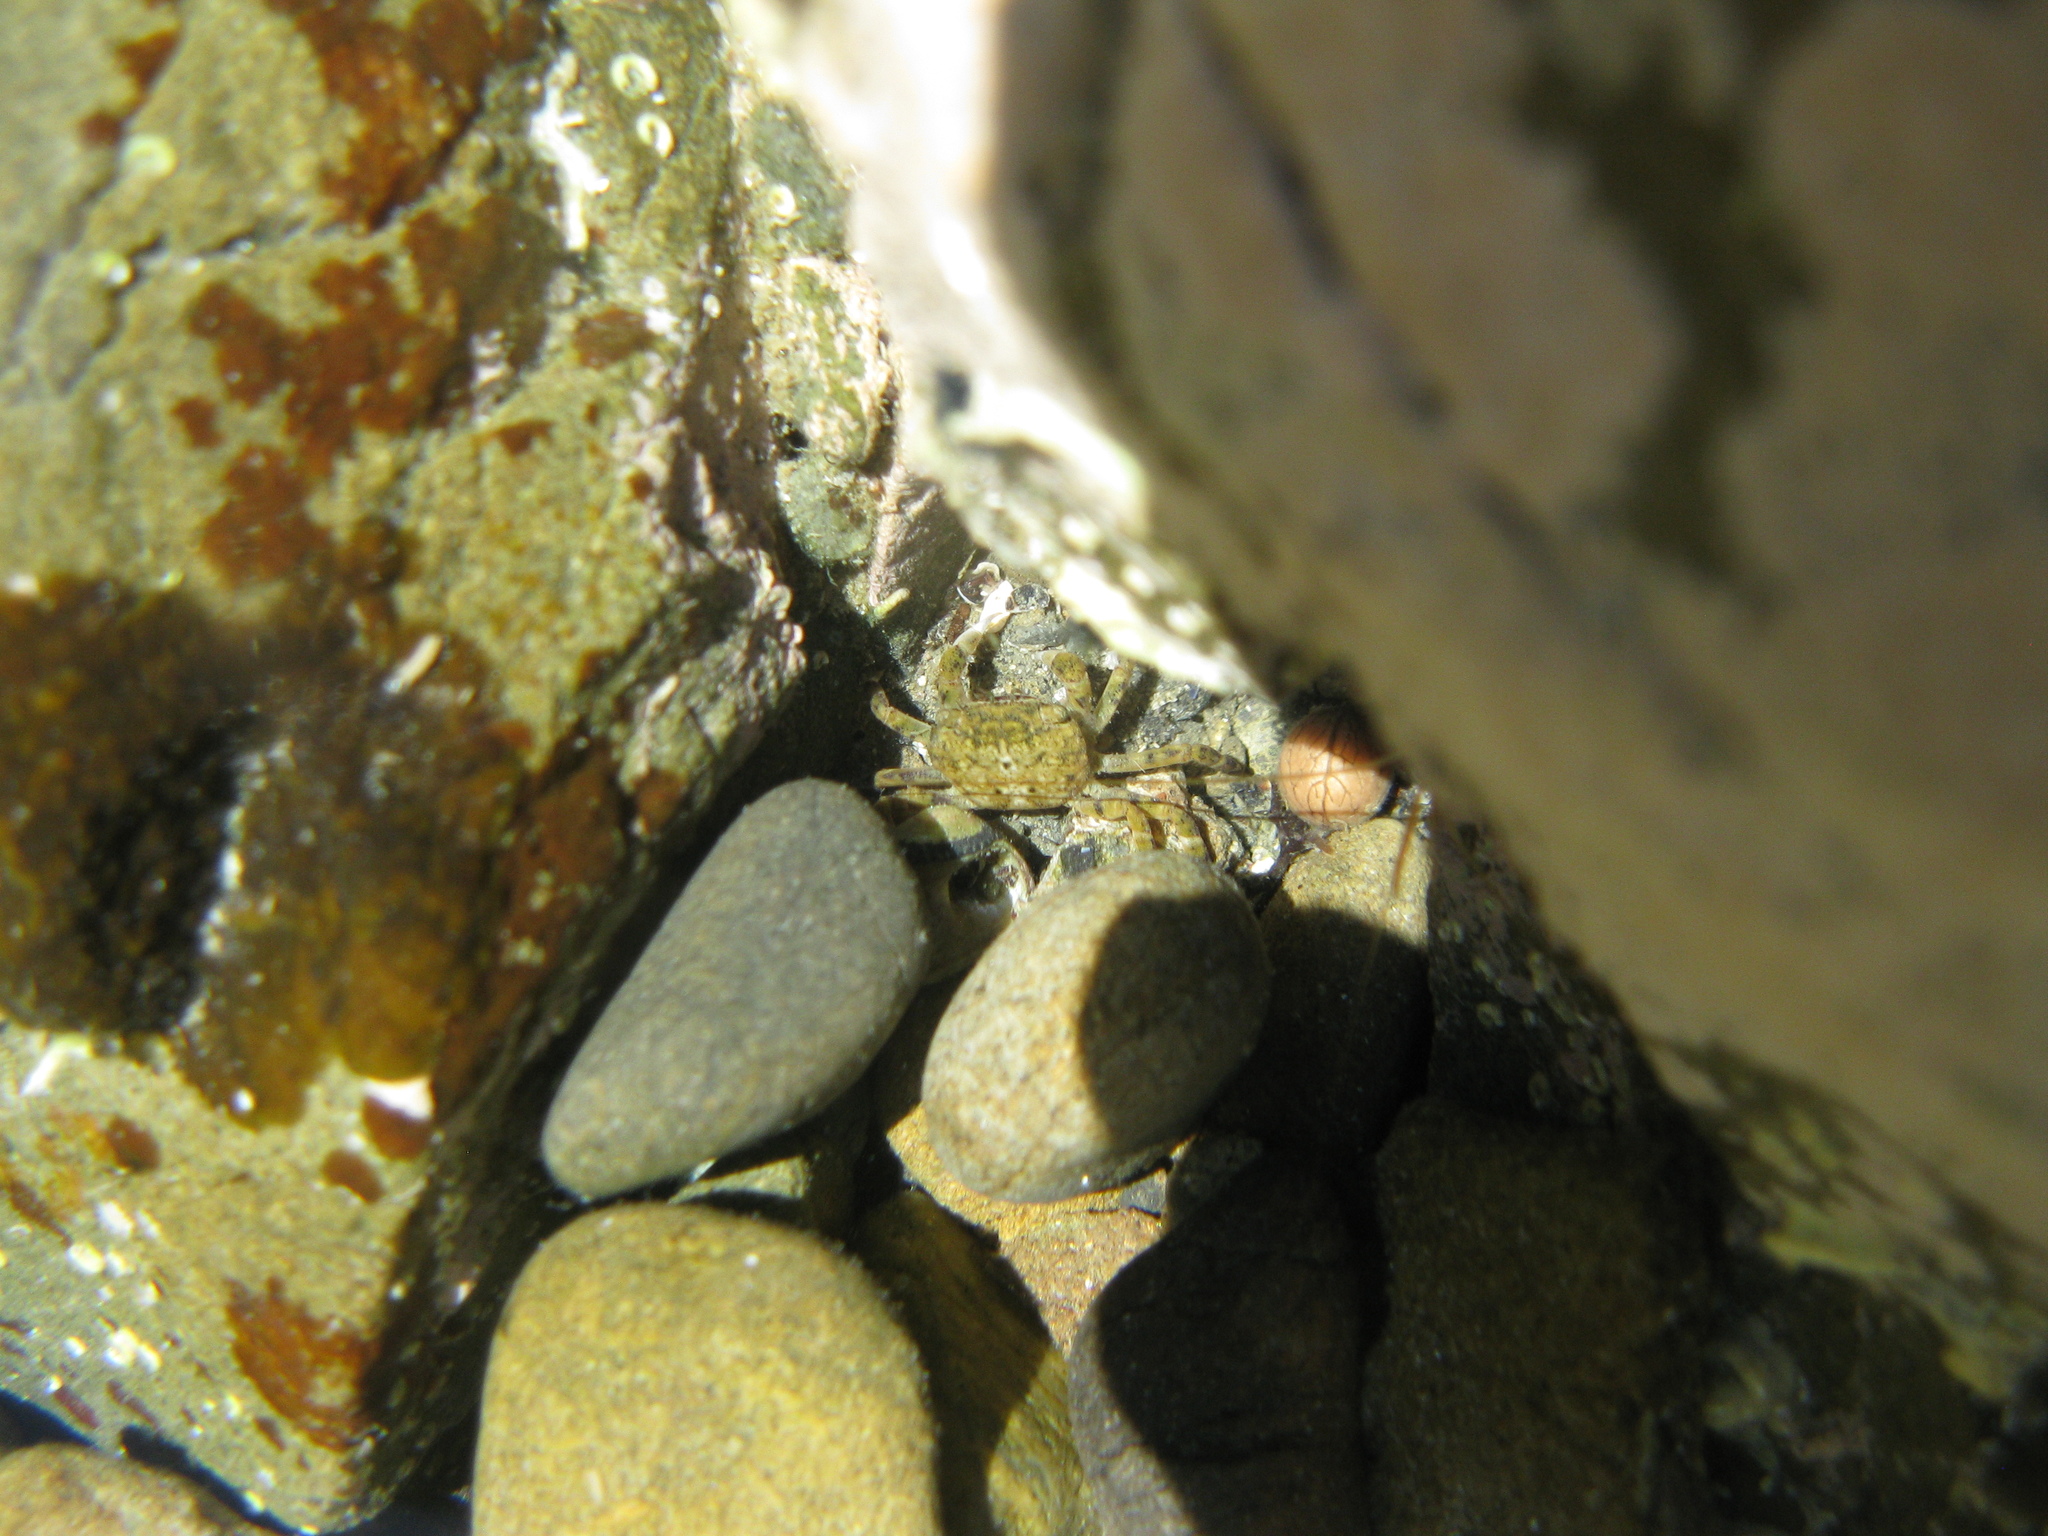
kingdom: Animalia
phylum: Arthropoda
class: Malacostraca
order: Decapoda
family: Varunidae
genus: Cyclograpsus
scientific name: Cyclograpsus lavauxi
